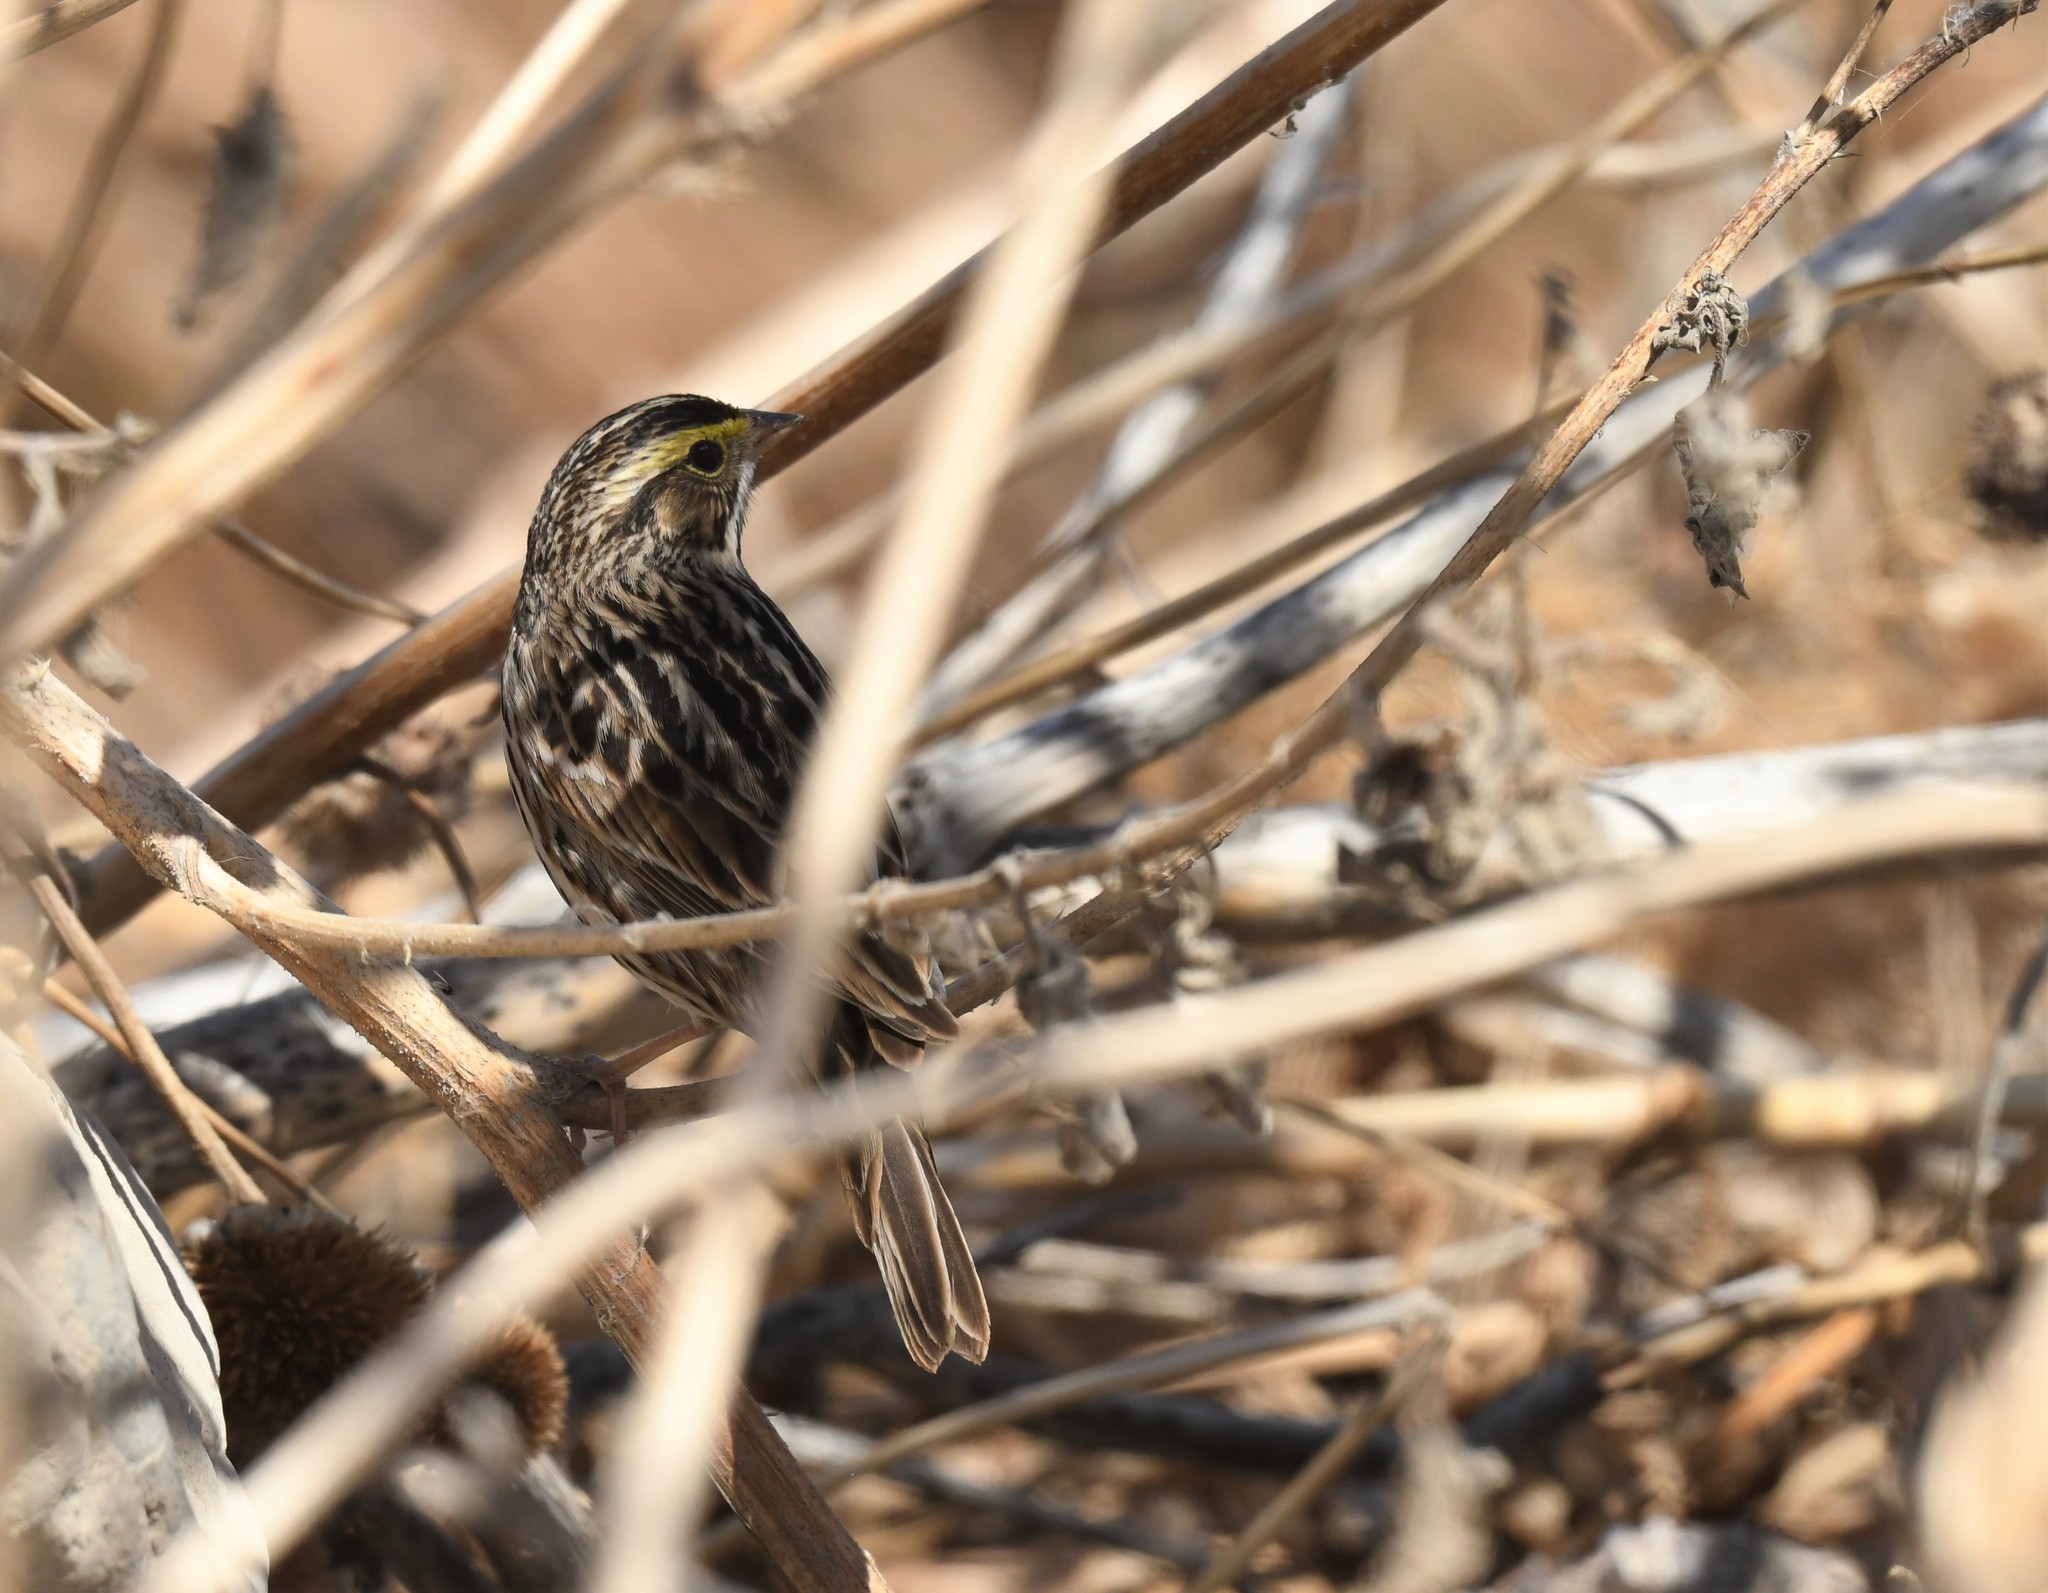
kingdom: Animalia
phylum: Chordata
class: Aves
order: Passeriformes
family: Passerellidae
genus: Passerculus
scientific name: Passerculus sandwichensis
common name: Savannah sparrow
